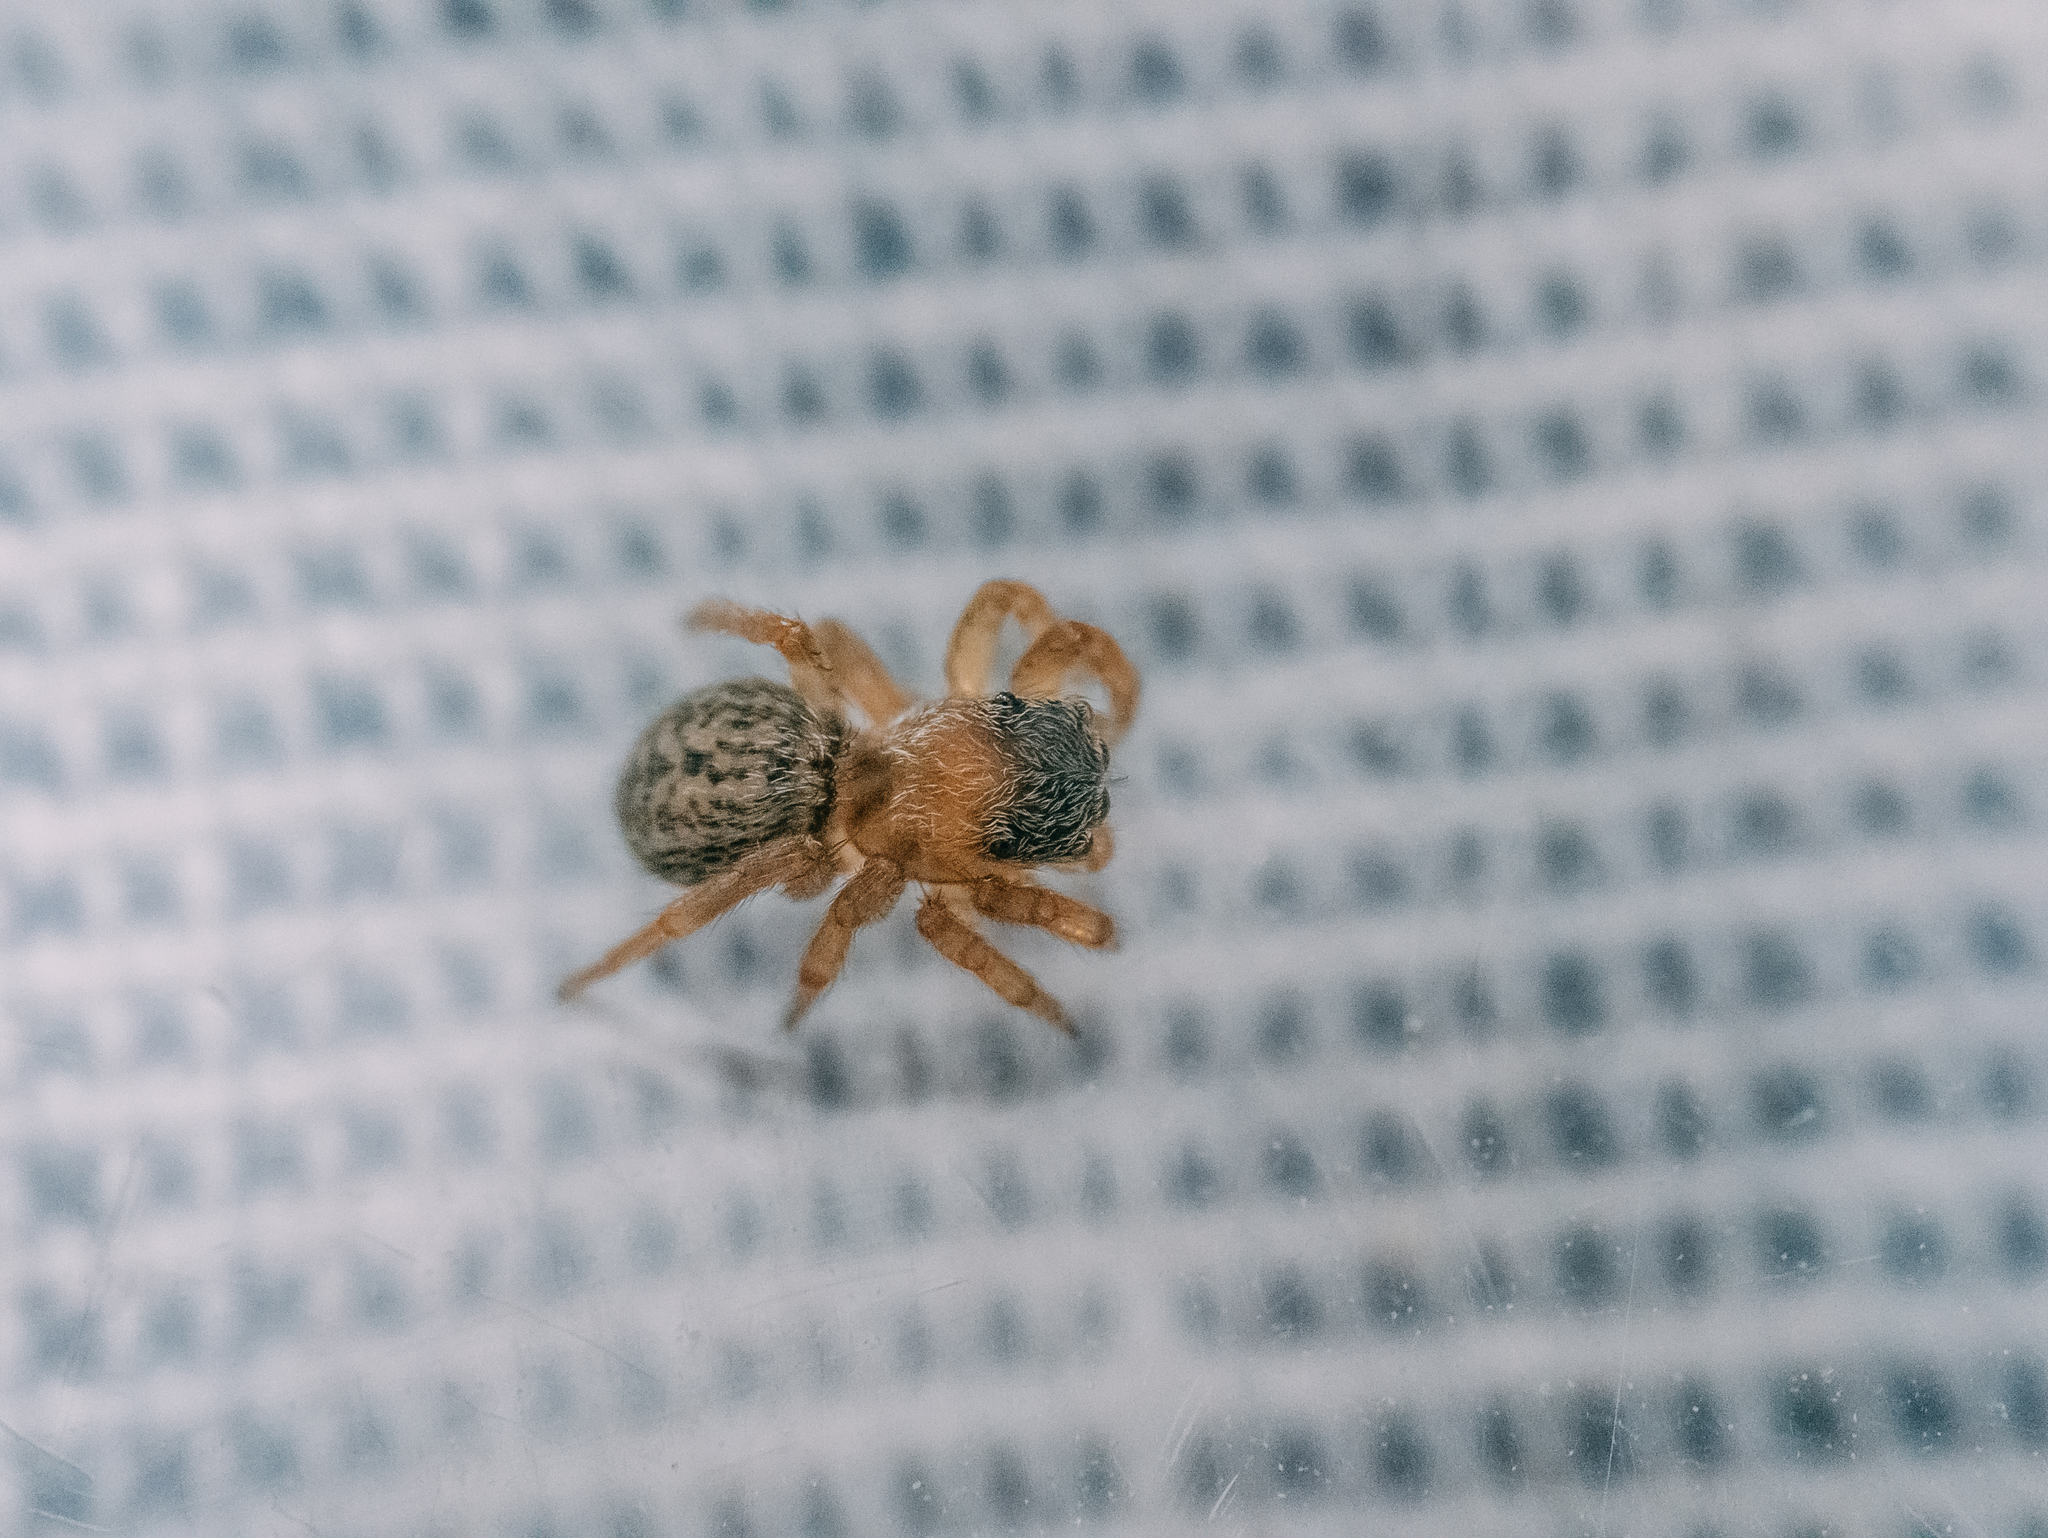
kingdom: Animalia
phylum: Arthropoda
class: Arachnida
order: Araneae
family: Salticidae
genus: Euophrys
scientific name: Euophrys frontalis
